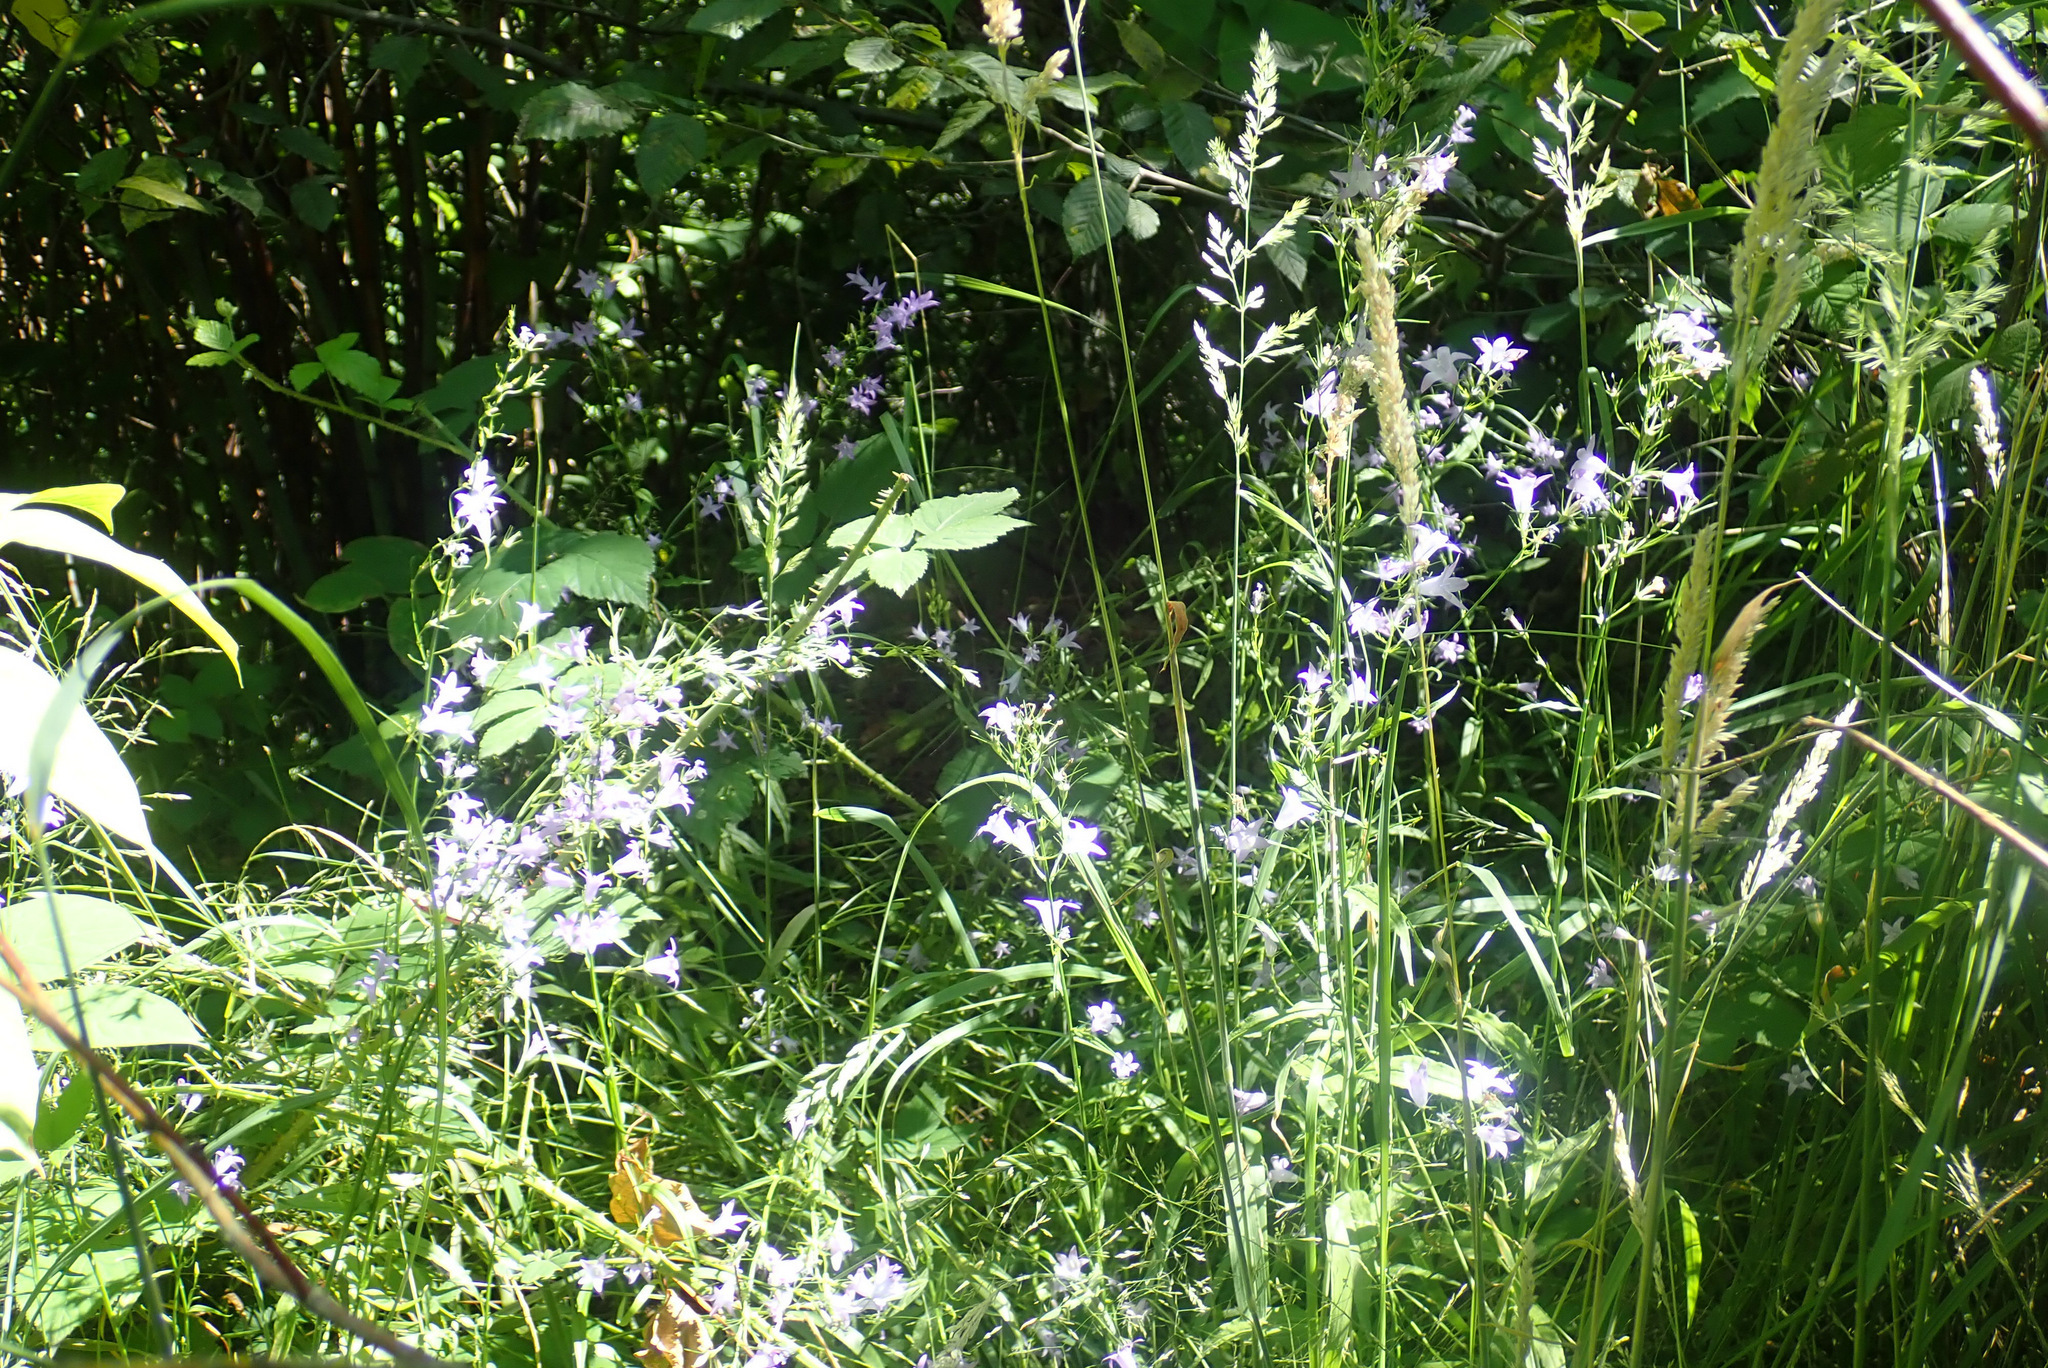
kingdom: Plantae
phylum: Tracheophyta
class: Magnoliopsida
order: Asterales
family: Campanulaceae
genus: Campanula
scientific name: Campanula rapunculus
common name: Rampion bellflower
